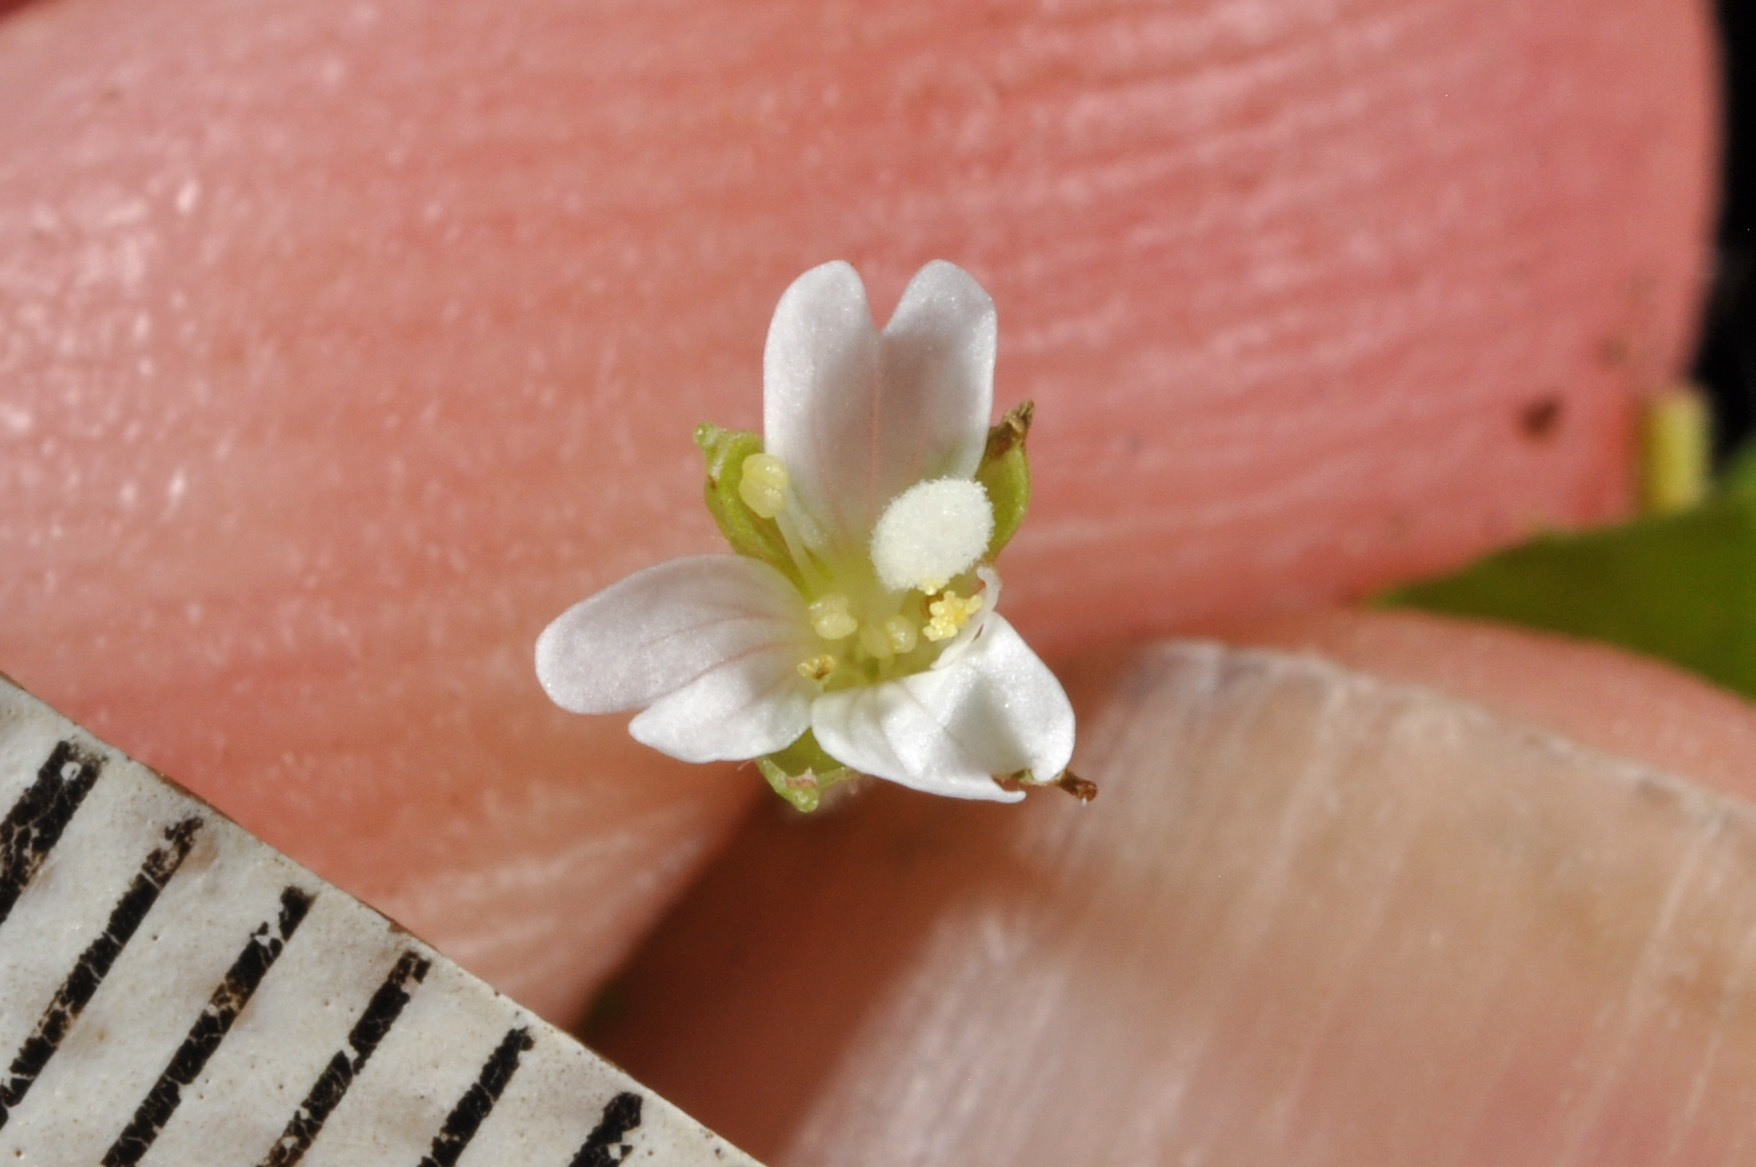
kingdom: Plantae
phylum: Tracheophyta
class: Magnoliopsida
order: Myrtales
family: Onagraceae
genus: Epilobium
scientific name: Epilobium rotundifolium
